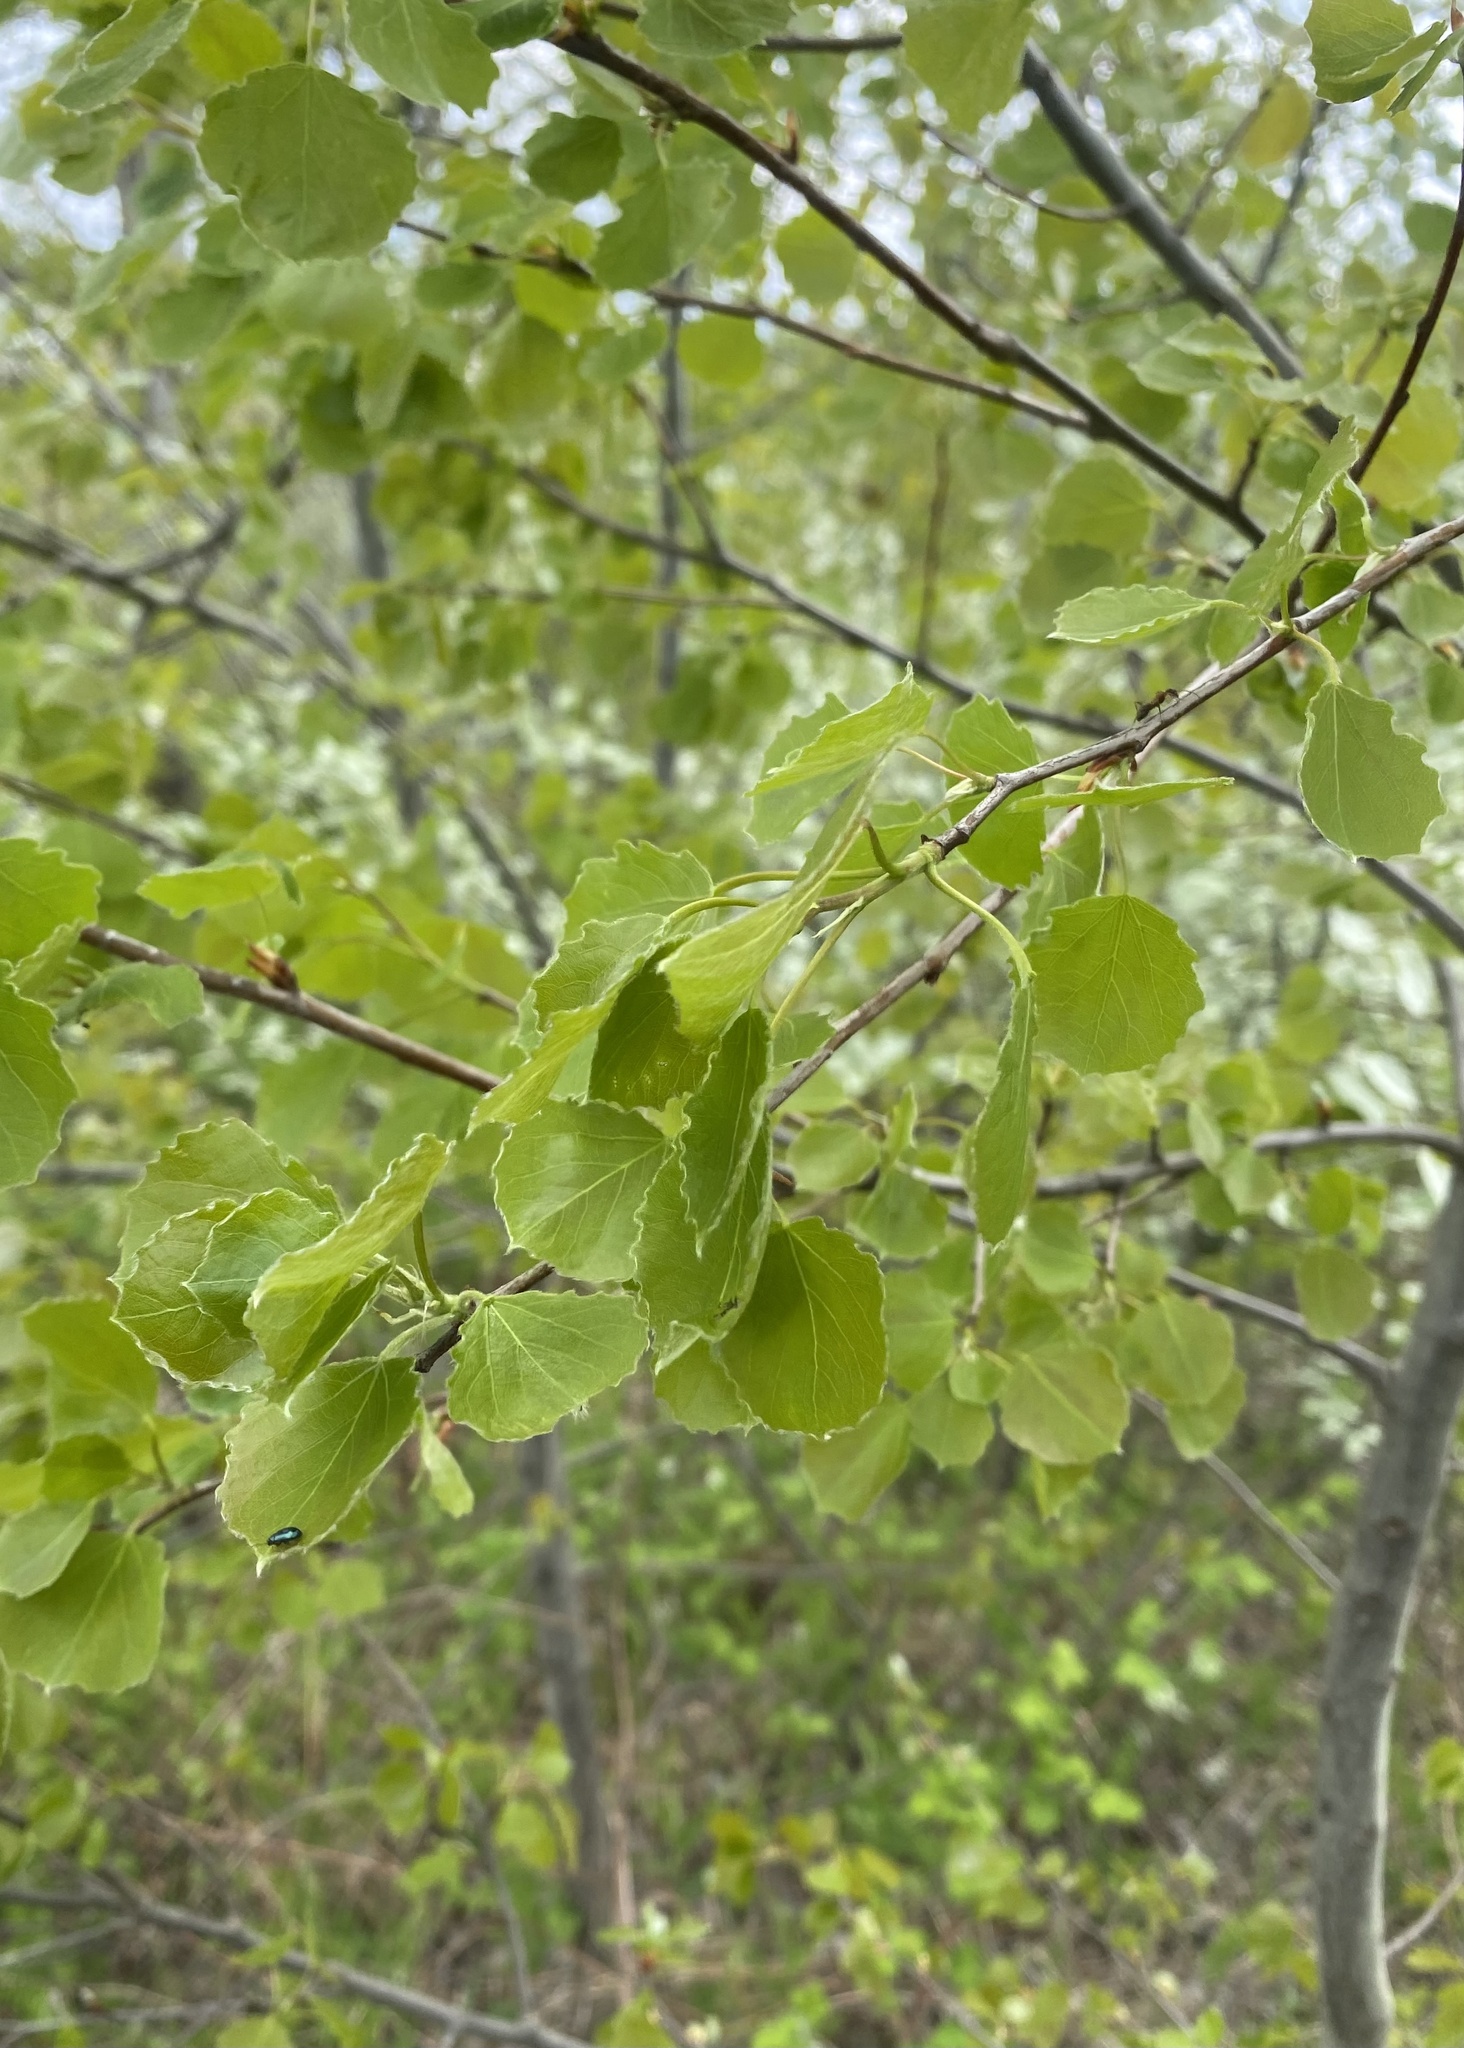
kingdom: Plantae
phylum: Tracheophyta
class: Magnoliopsida
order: Malpighiales
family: Salicaceae
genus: Populus
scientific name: Populus tremula
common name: European aspen
